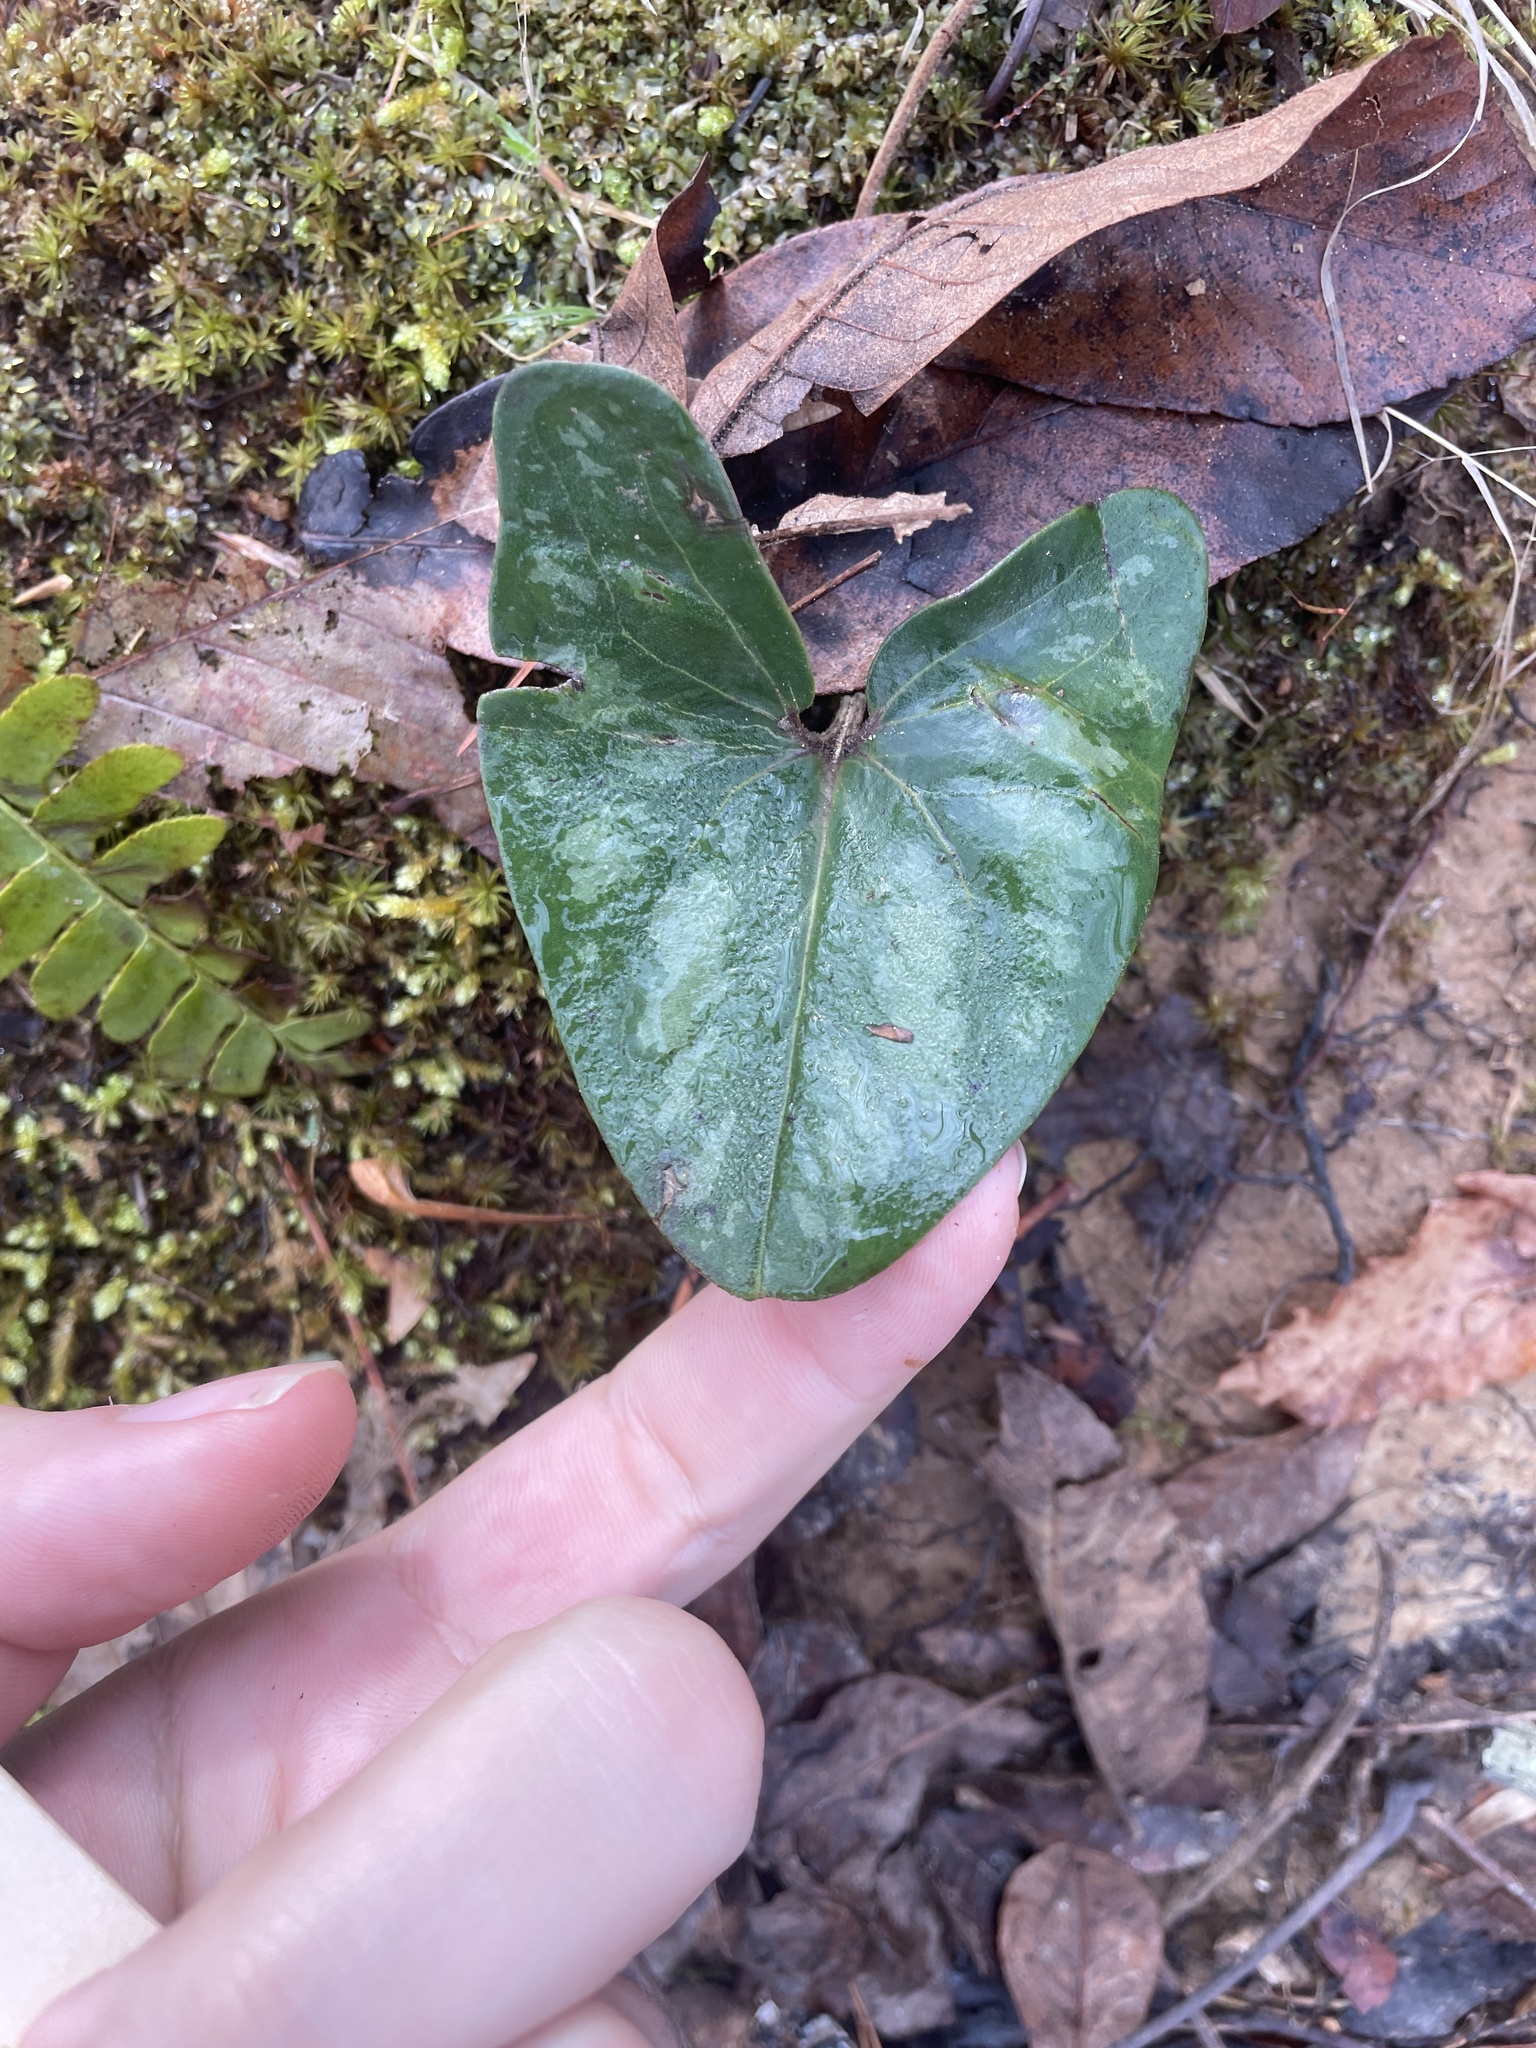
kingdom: Plantae
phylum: Tracheophyta
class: Magnoliopsida
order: Piperales
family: Aristolochiaceae
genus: Hexastylis
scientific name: Hexastylis arifolia
